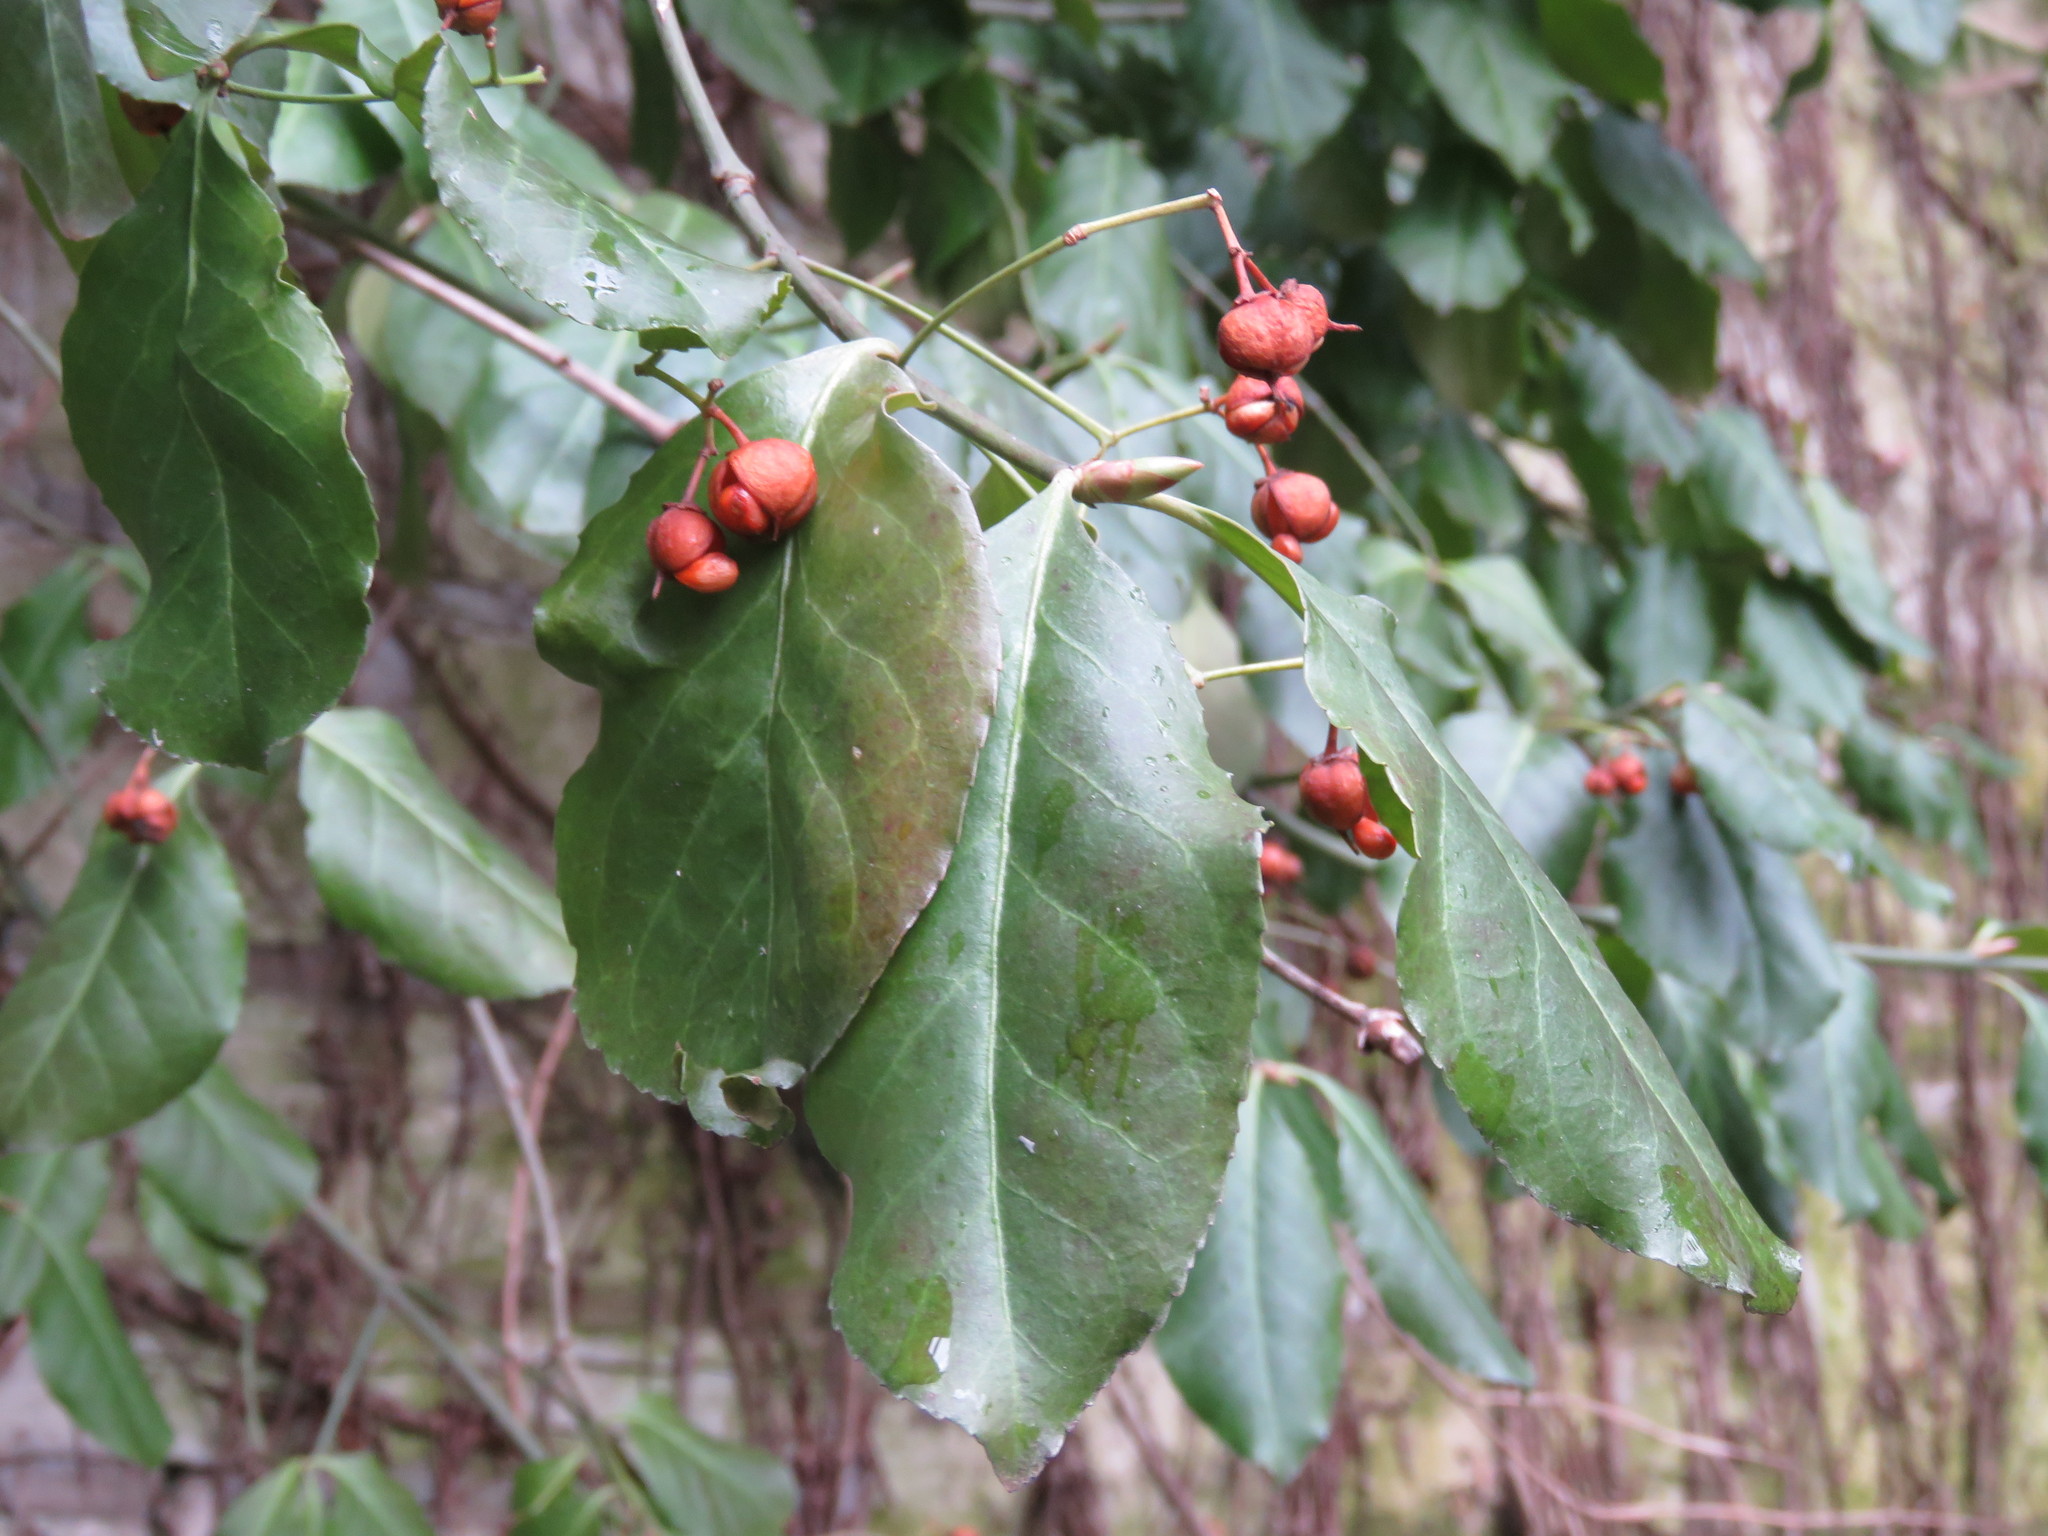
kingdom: Plantae
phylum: Tracheophyta
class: Magnoliopsida
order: Celastrales
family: Celastraceae
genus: Euonymus
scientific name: Euonymus fortunei
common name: Climbing euonymus
